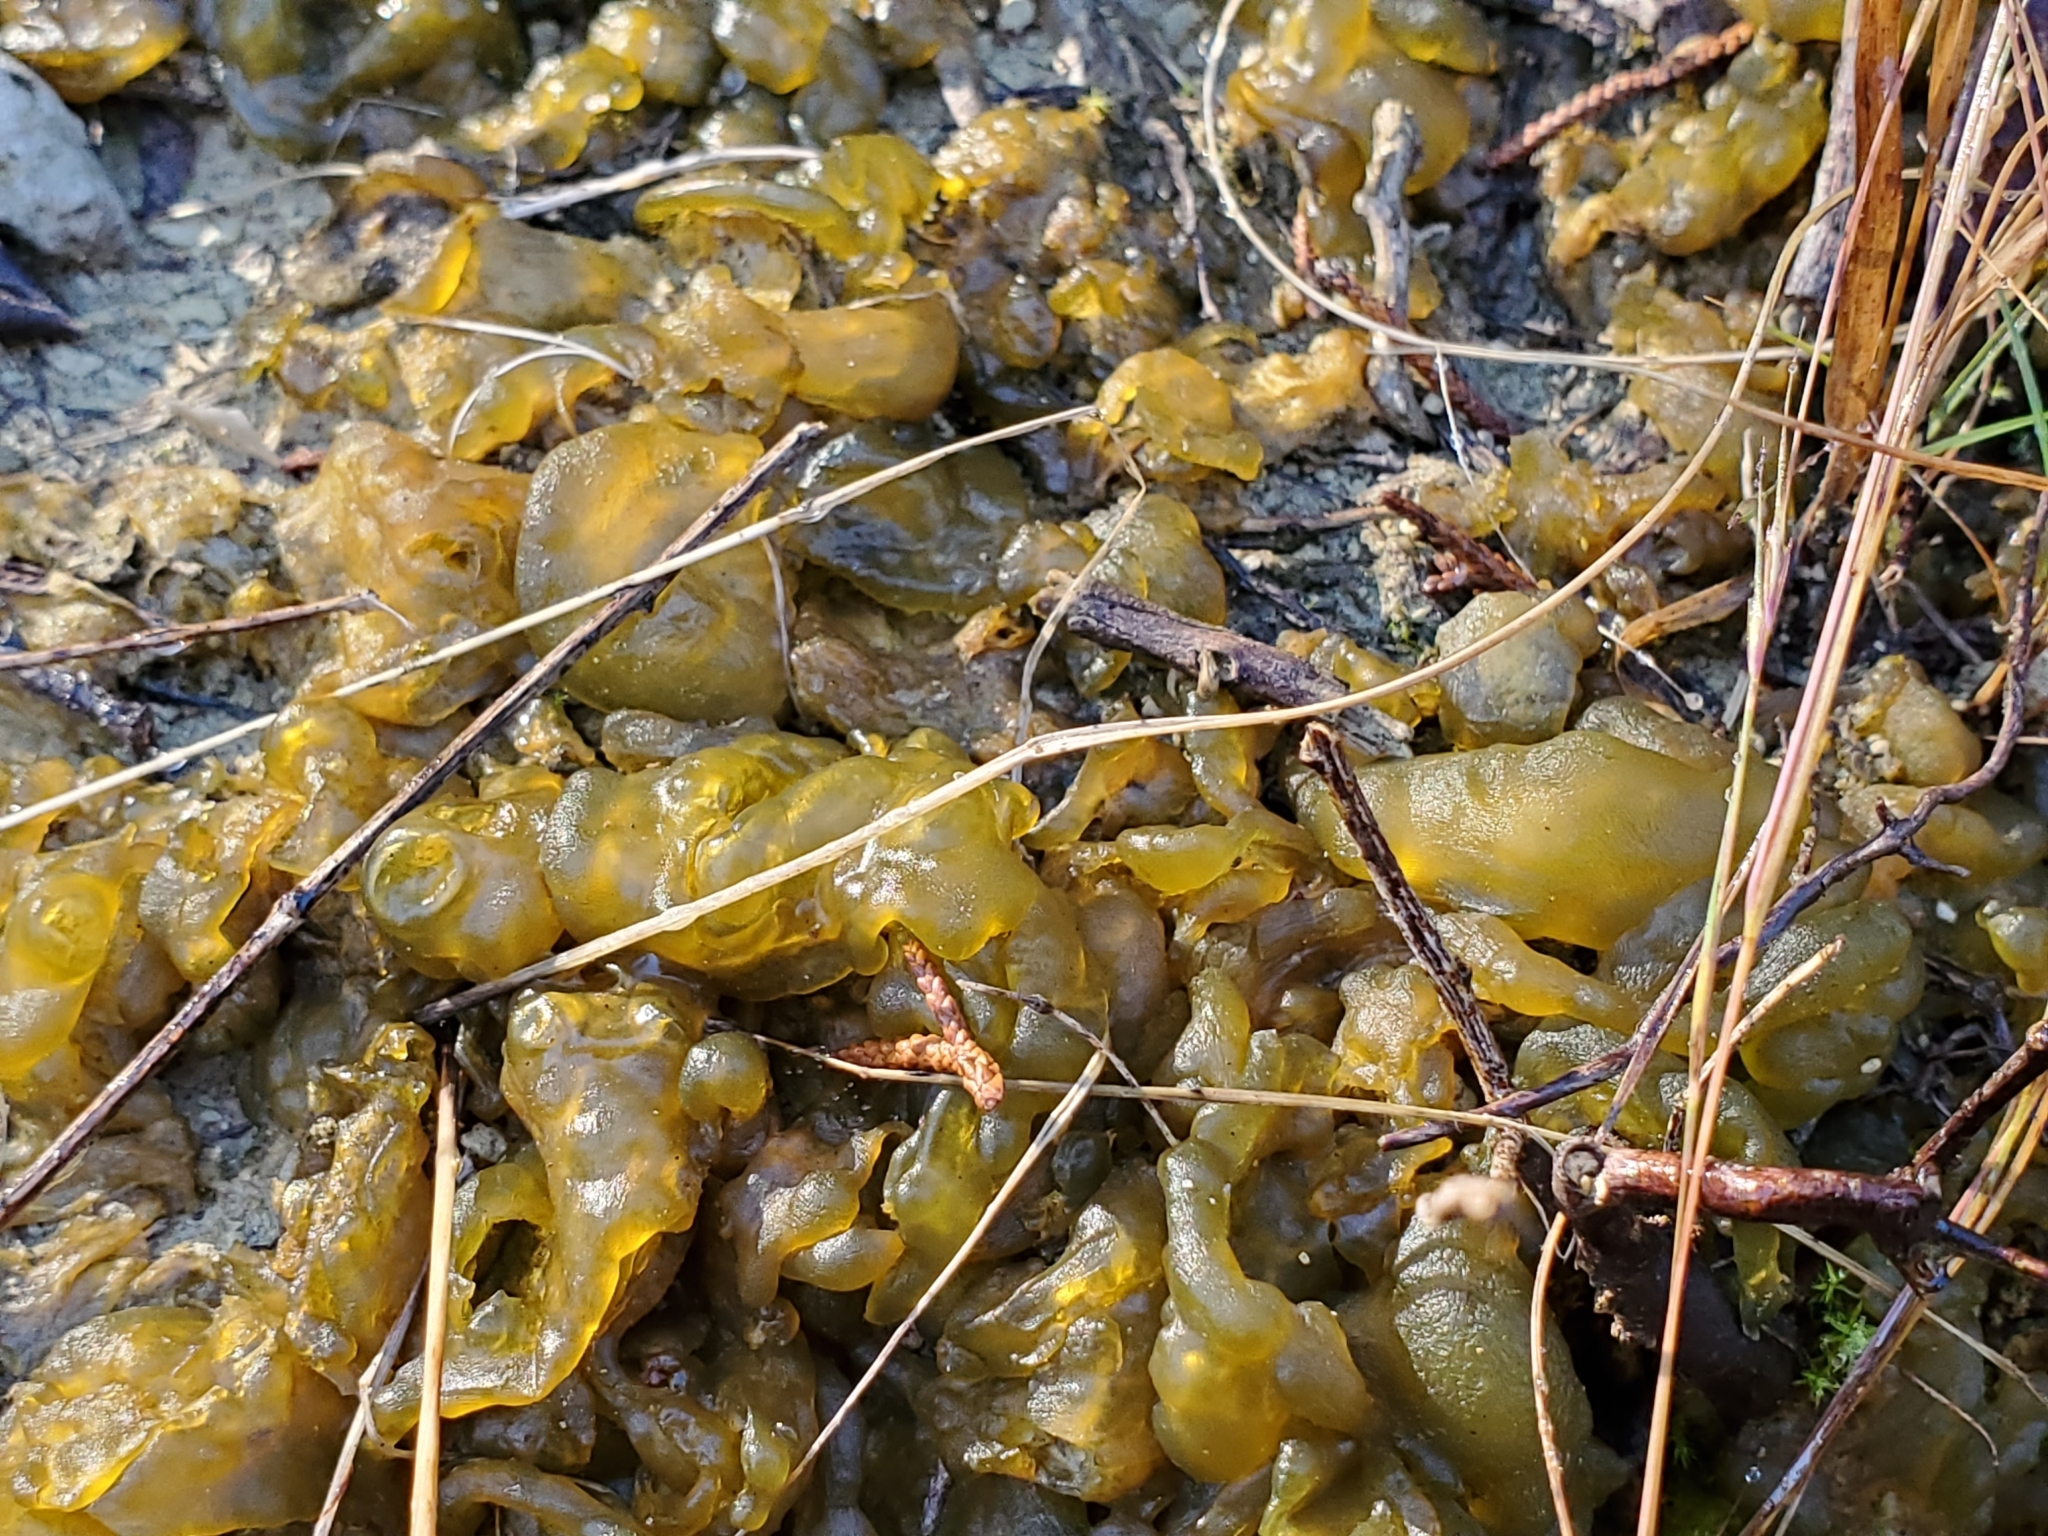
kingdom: Bacteria
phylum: Cyanobacteria
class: Cyanobacteriia
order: Cyanobacteriales
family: Nostocaceae
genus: Nostoc
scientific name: Nostoc commune
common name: Star jelly
